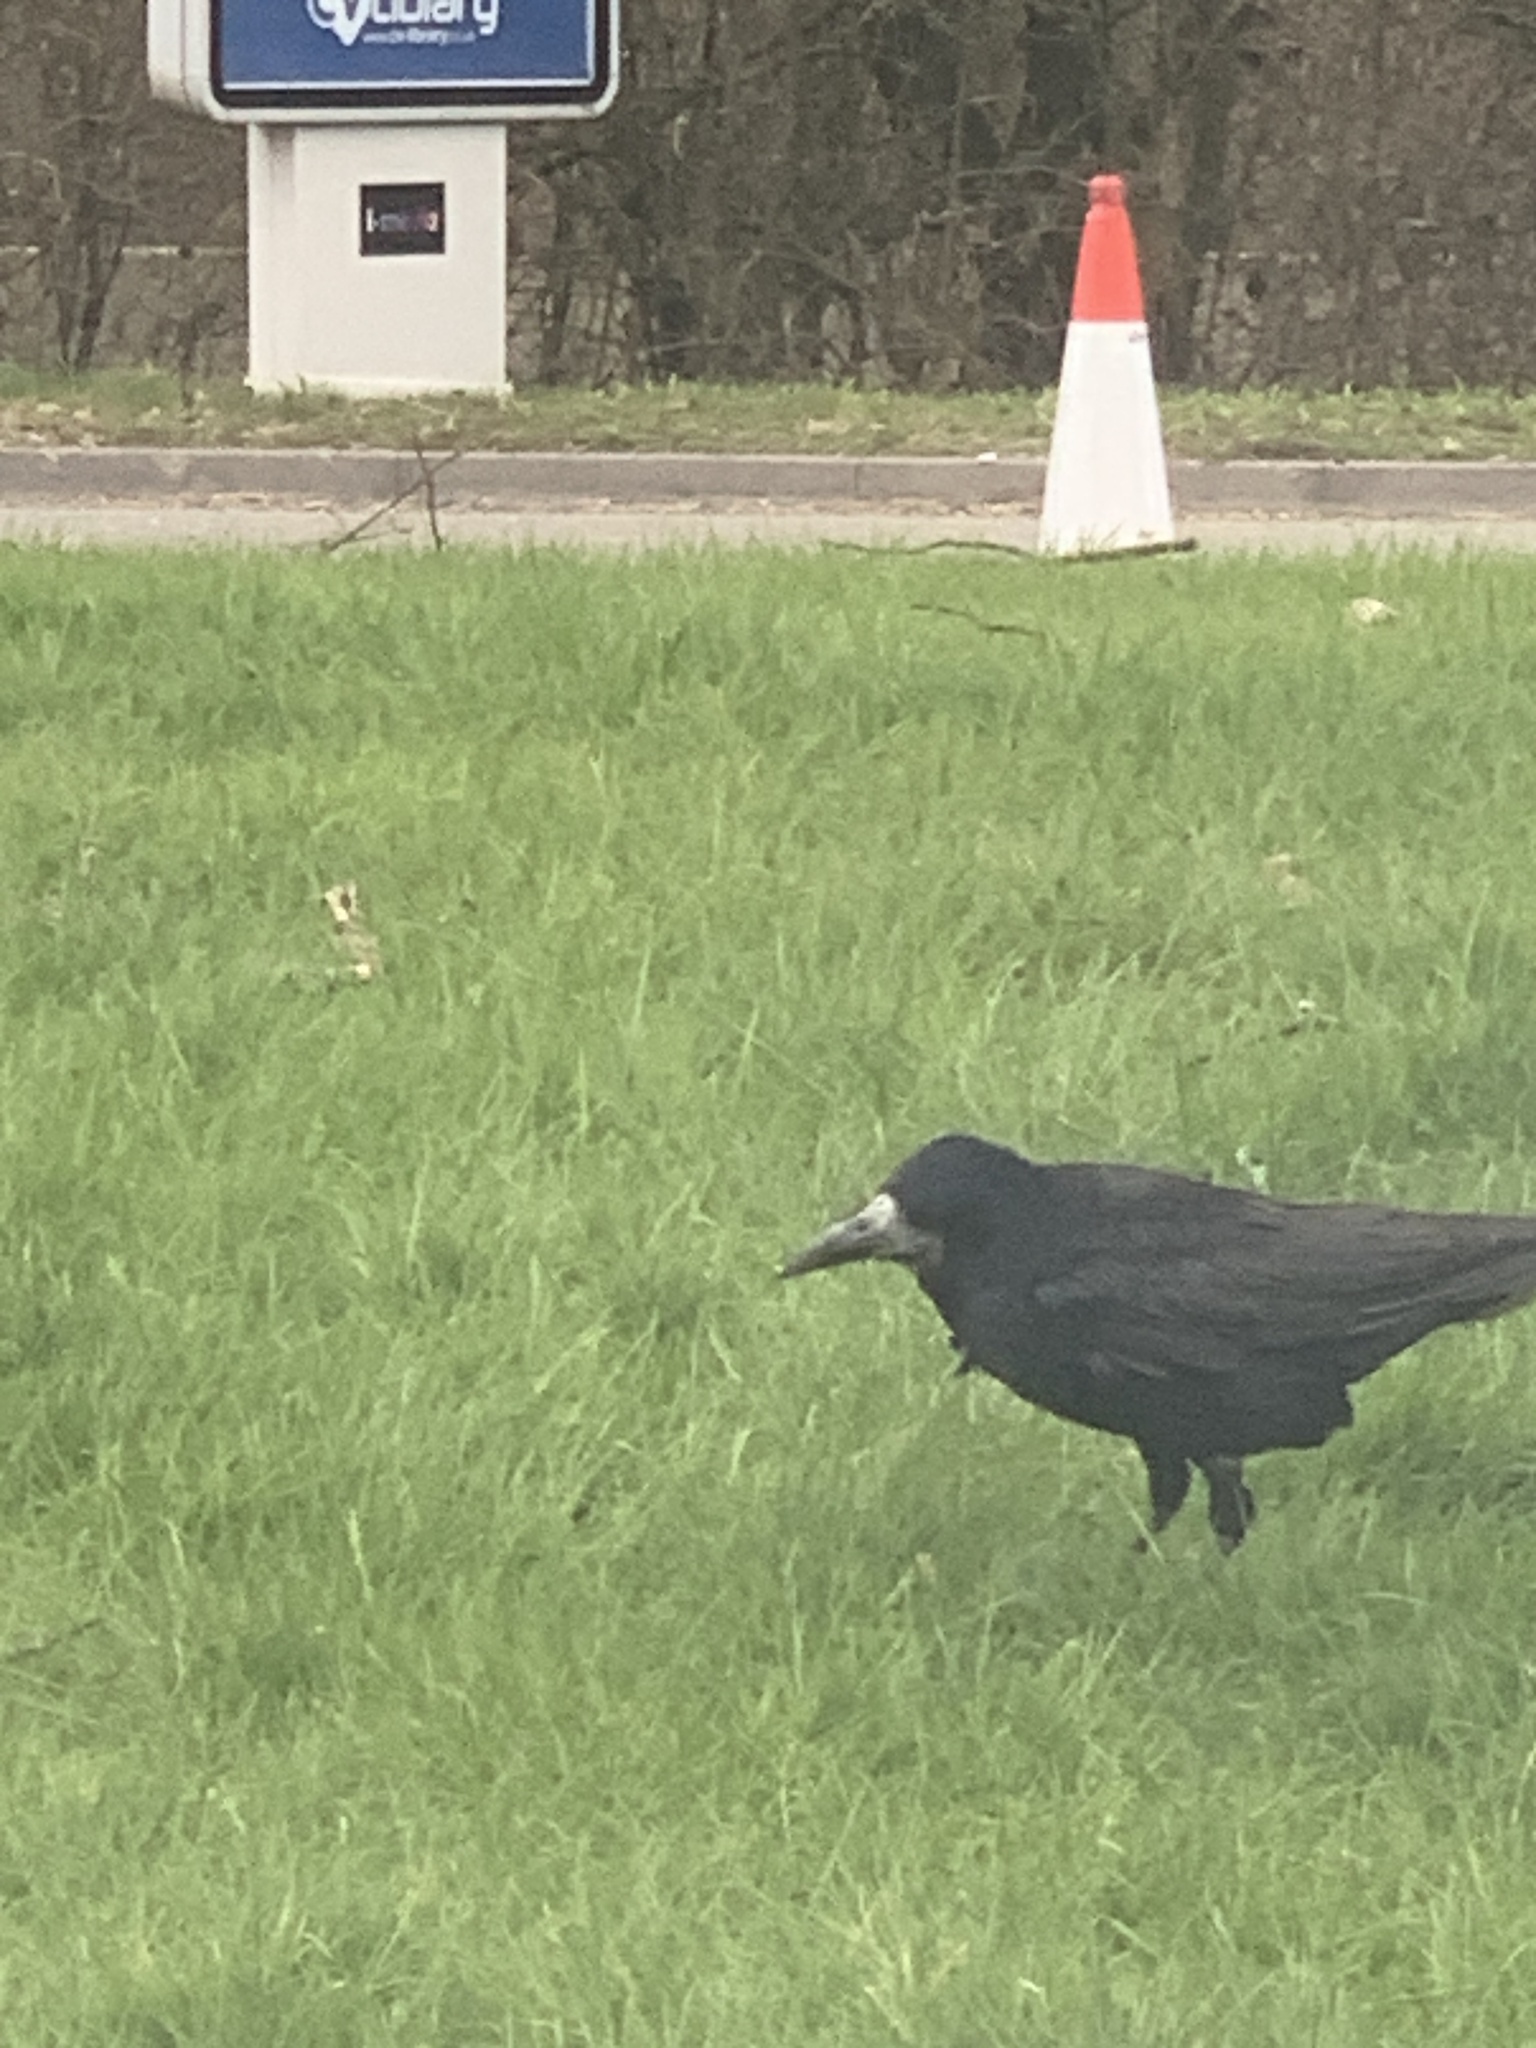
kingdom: Animalia
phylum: Chordata
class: Aves
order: Passeriformes
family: Corvidae
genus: Corvus
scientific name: Corvus frugilegus
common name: Rook
